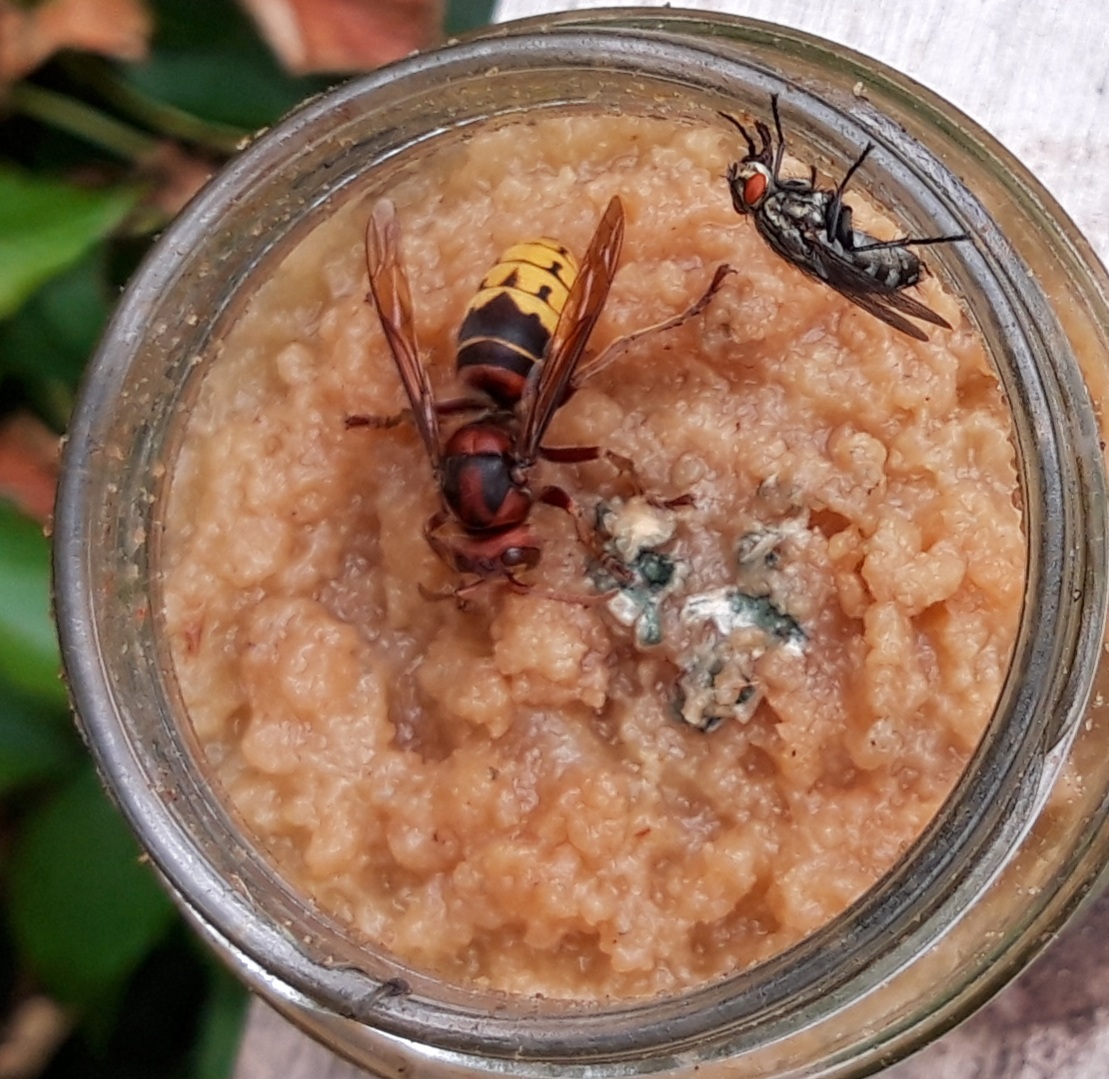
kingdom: Animalia
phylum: Arthropoda
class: Insecta
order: Hymenoptera
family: Vespidae
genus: Vespa
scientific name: Vespa crabro
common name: Hornet
